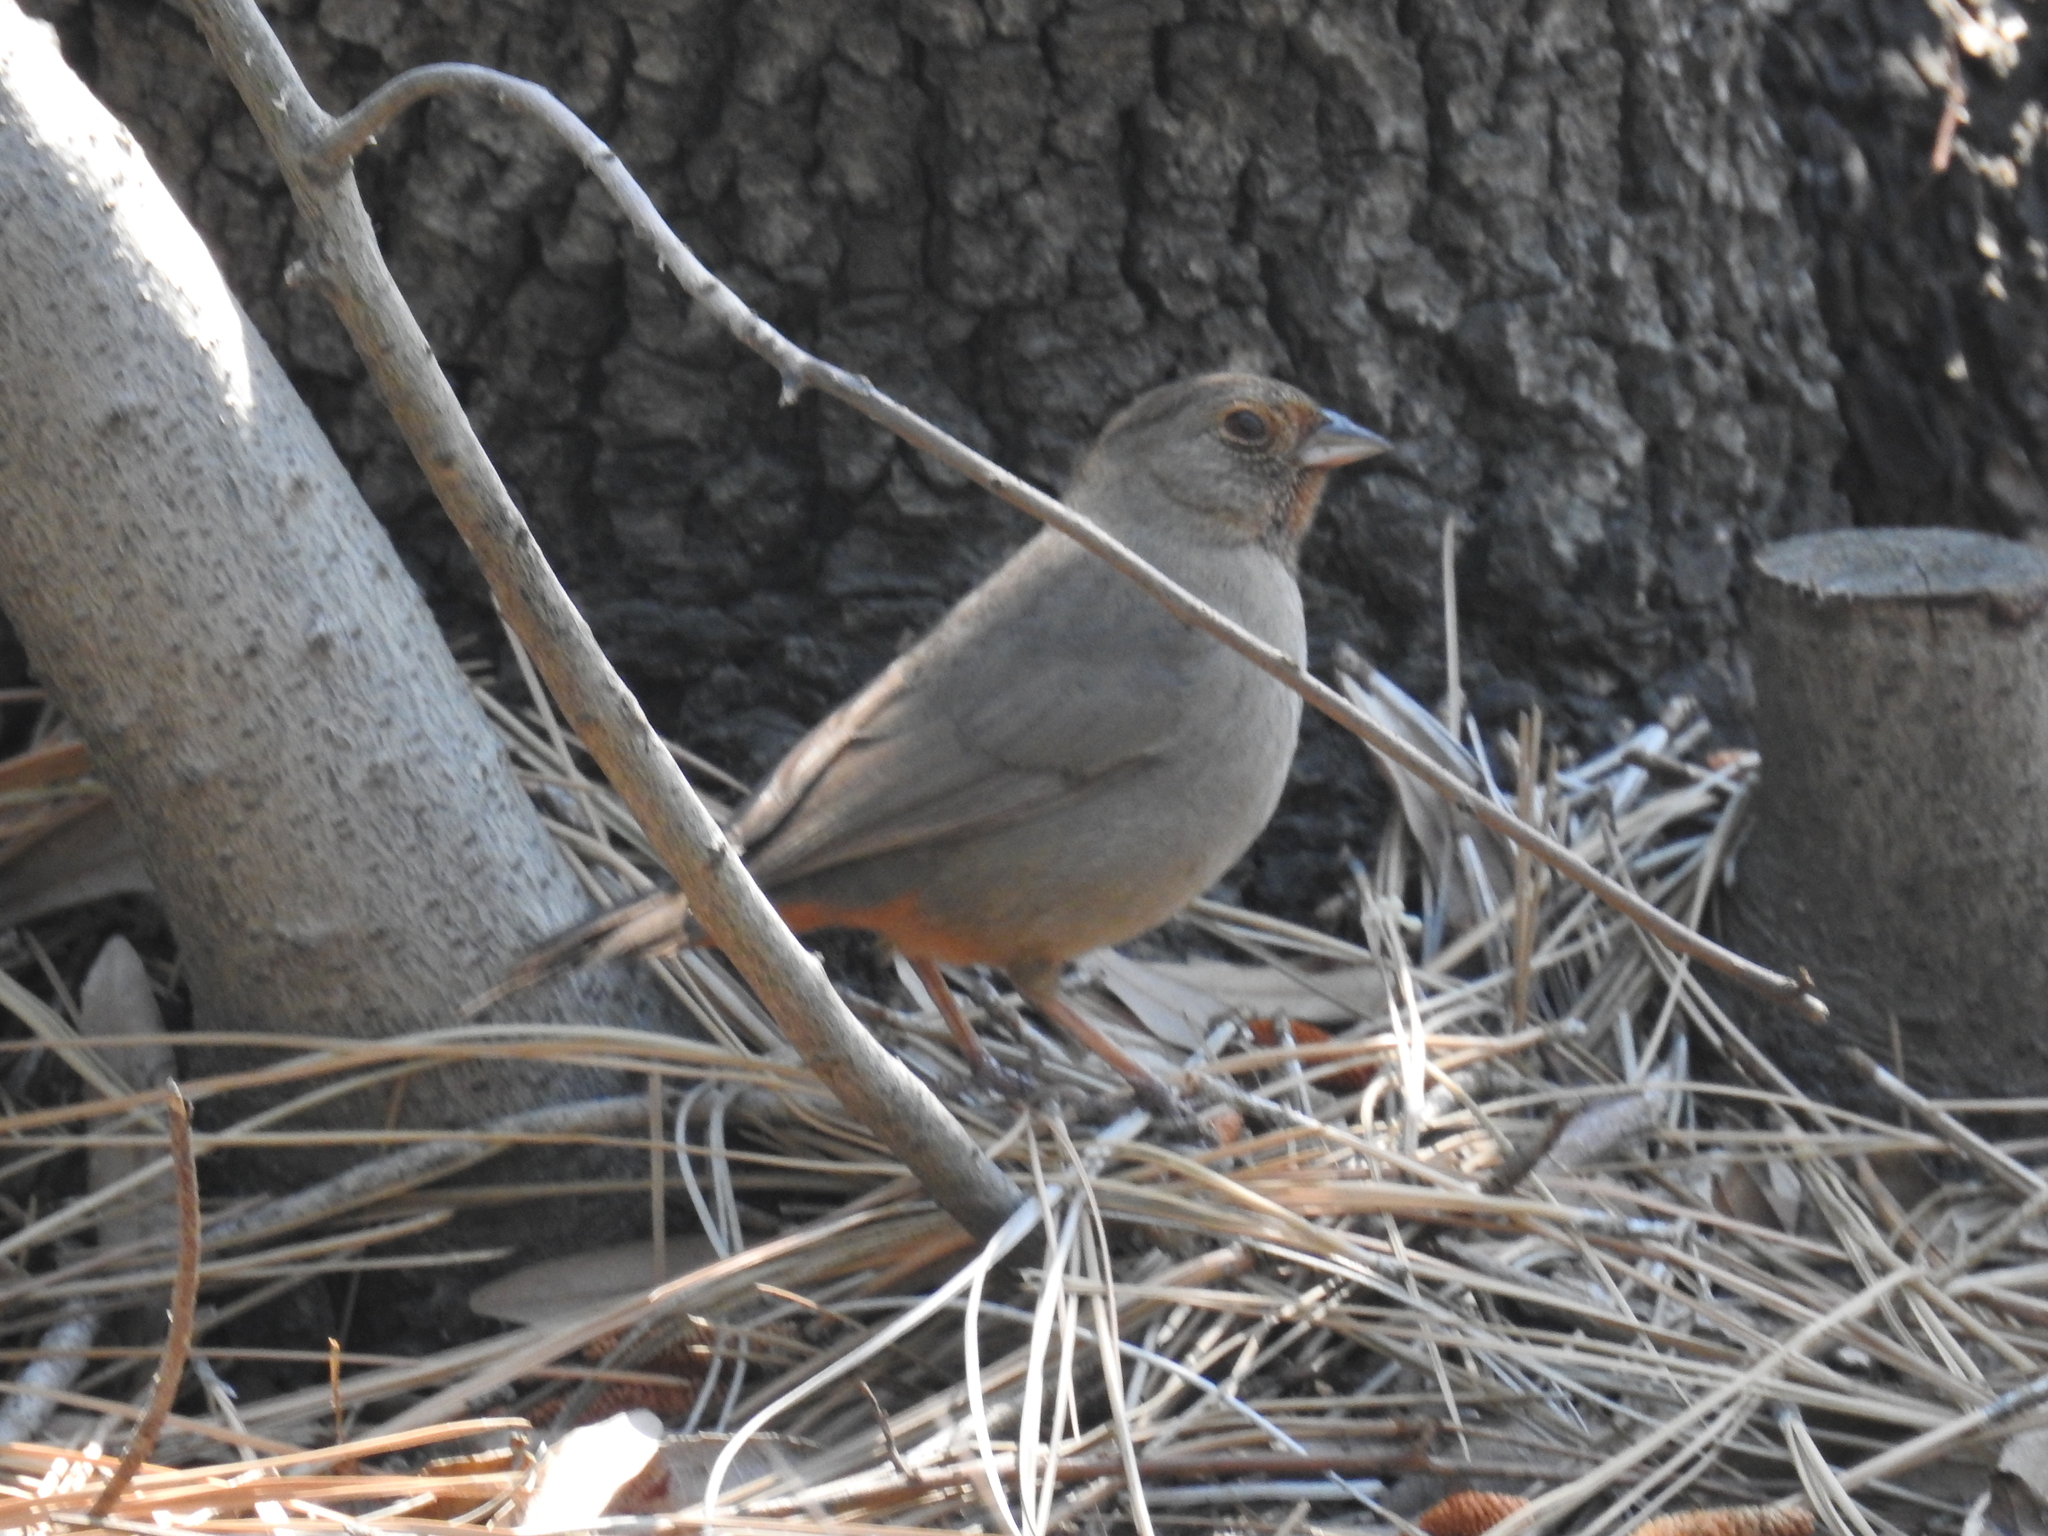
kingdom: Animalia
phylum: Chordata
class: Aves
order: Passeriformes
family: Passerellidae
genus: Melozone
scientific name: Melozone crissalis
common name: California towhee
